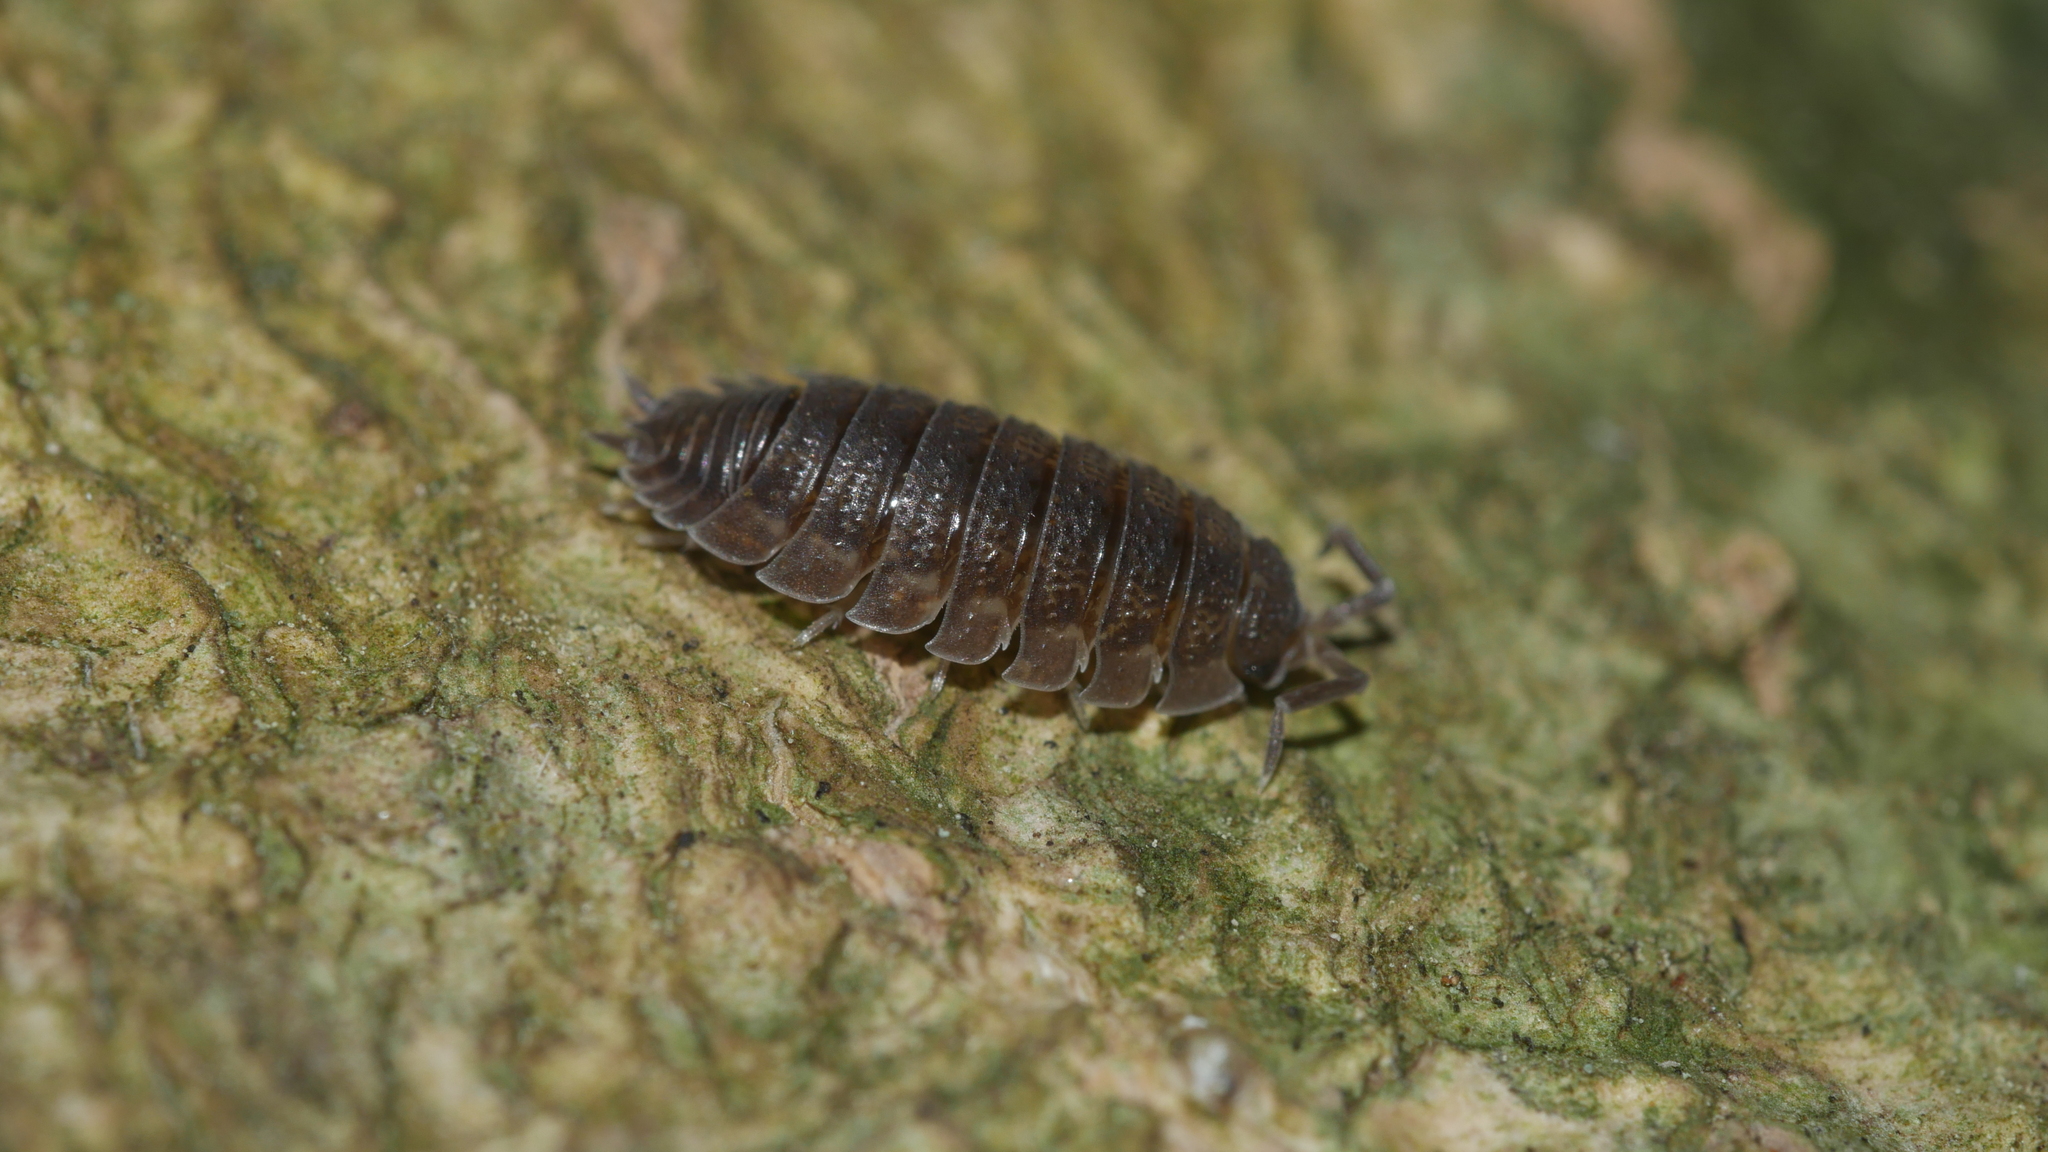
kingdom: Animalia
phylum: Arthropoda
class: Malacostraca
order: Isopoda
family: Porcellionidae
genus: Porcellio
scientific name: Porcellio scaber
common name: Common rough woodlouse
